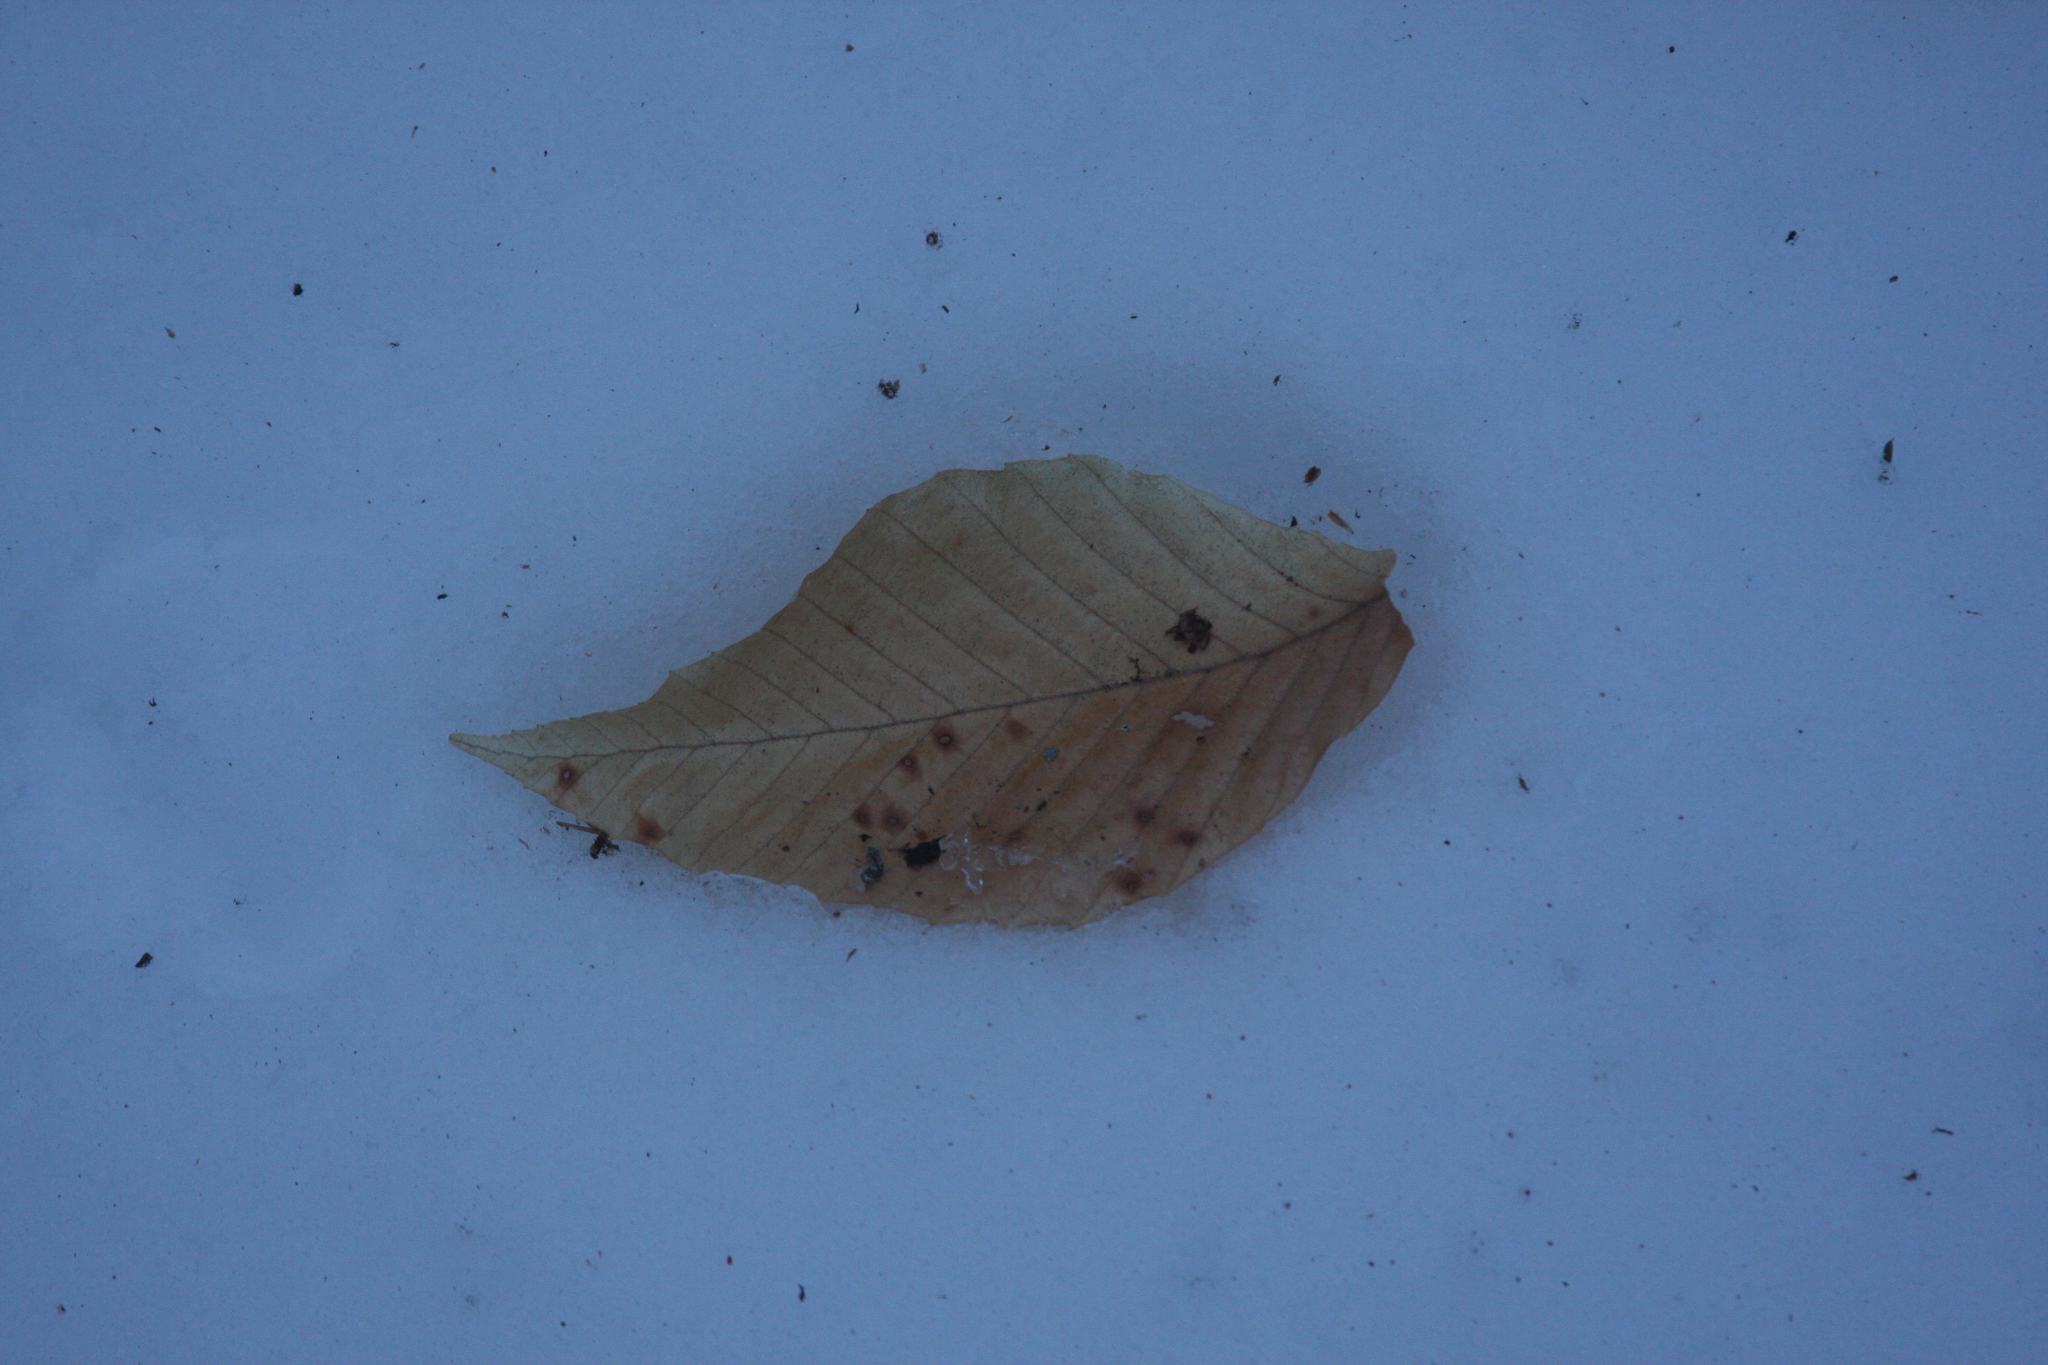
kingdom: Plantae
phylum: Tracheophyta
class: Magnoliopsida
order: Fagales
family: Fagaceae
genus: Fagus
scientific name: Fagus grandifolia
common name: American beech
